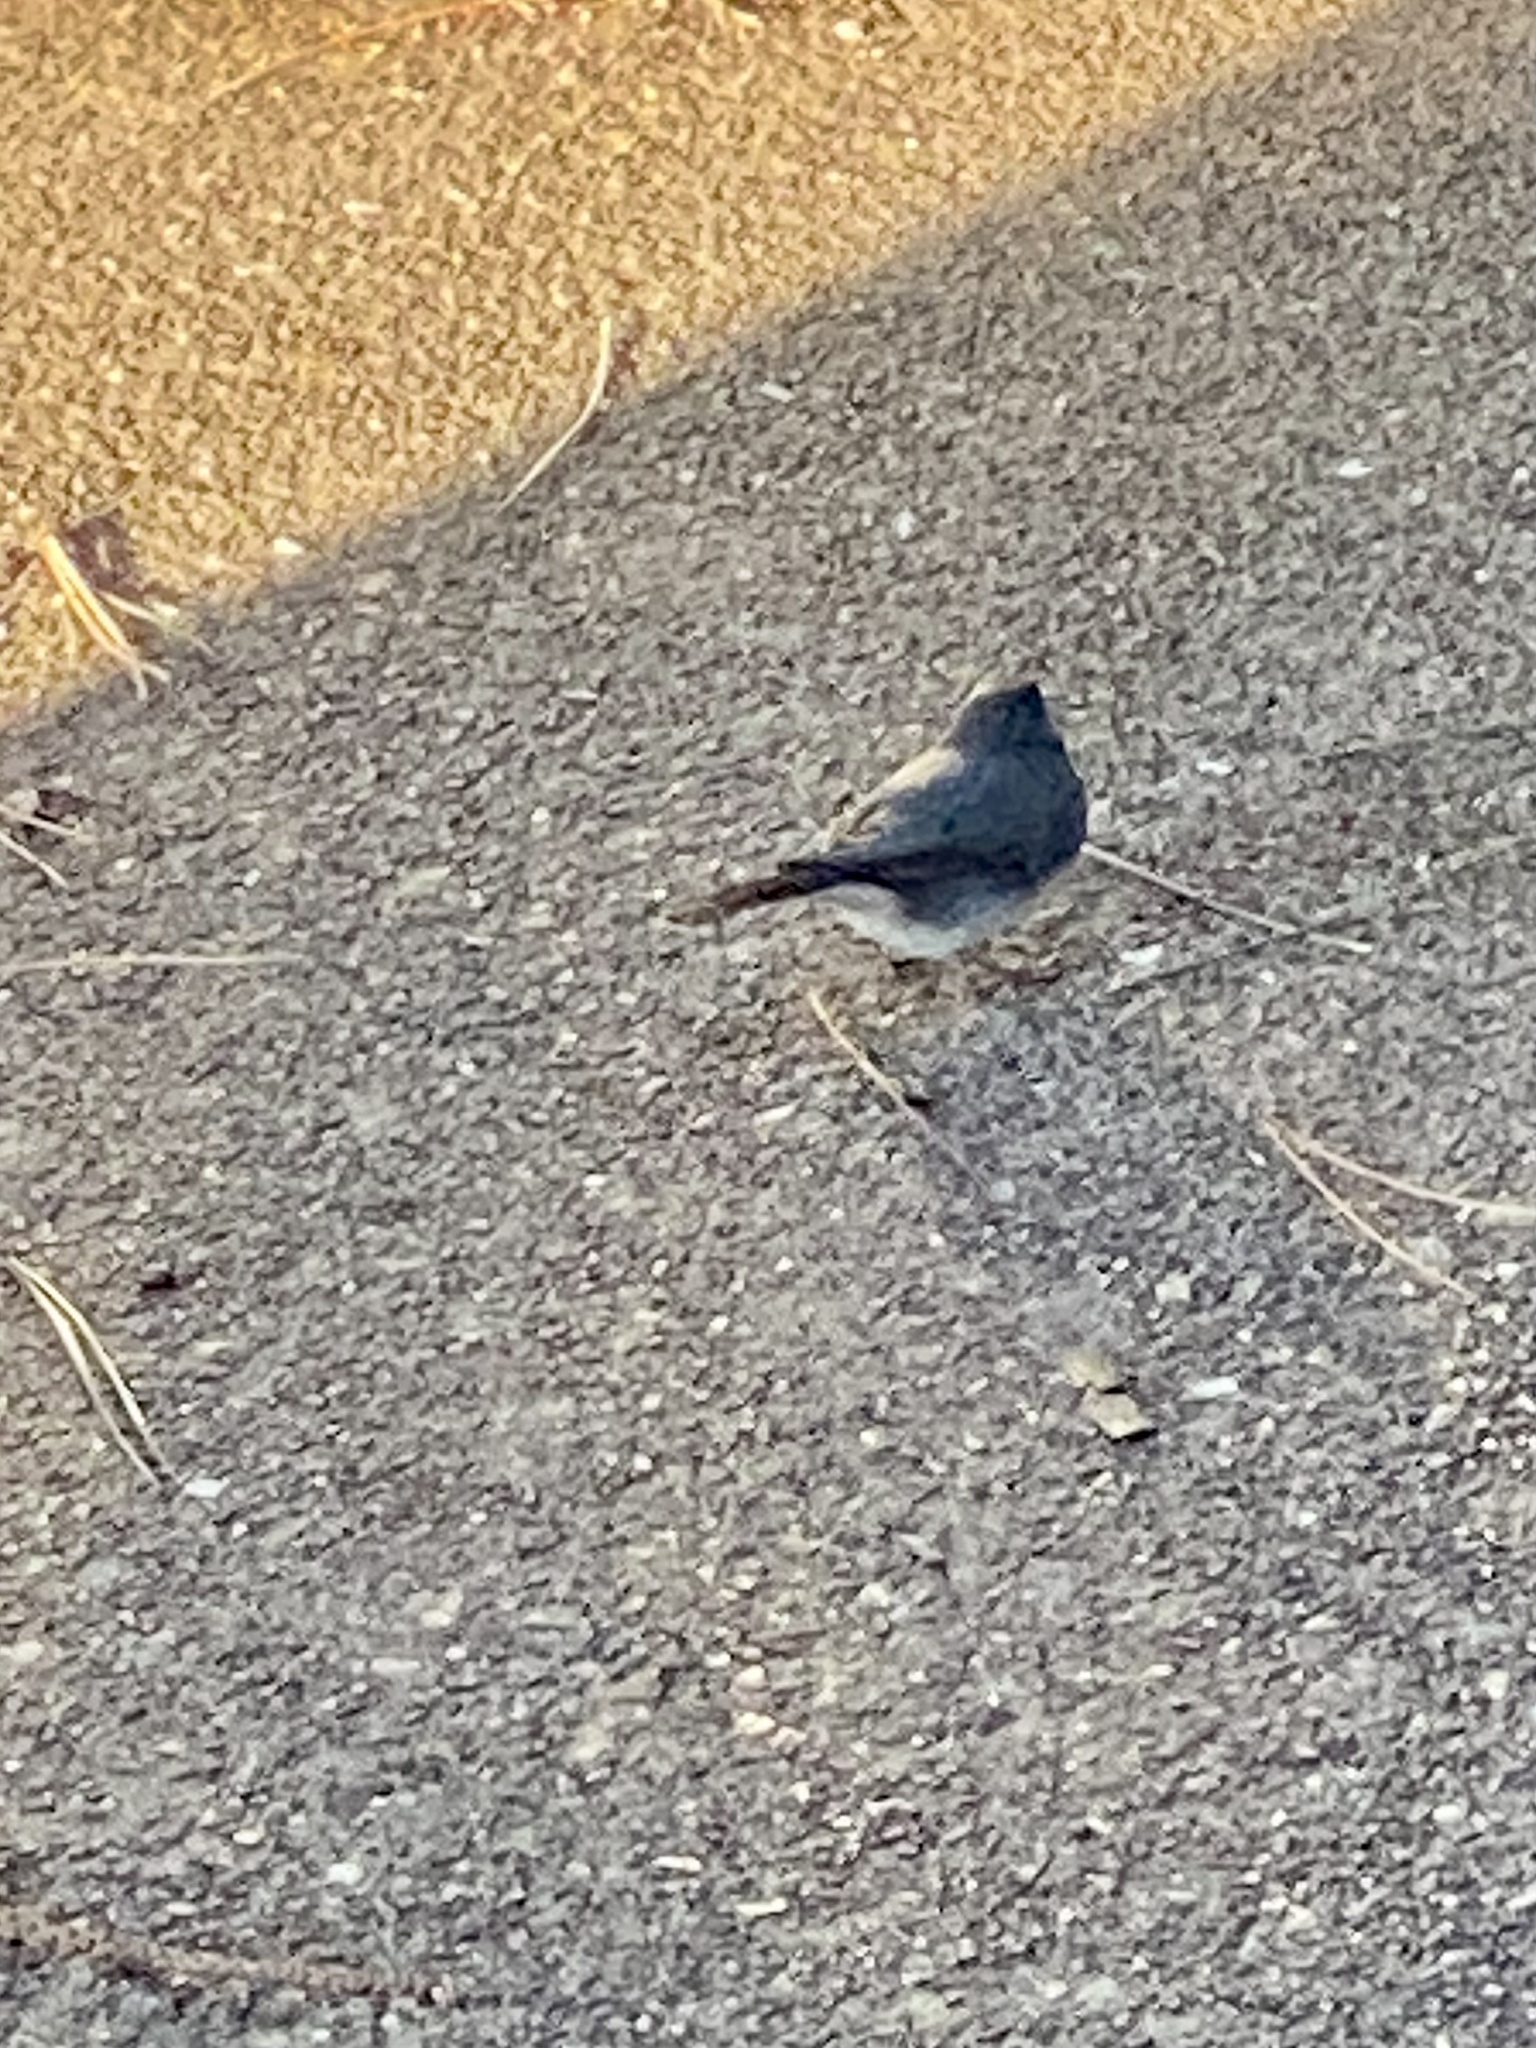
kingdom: Animalia
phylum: Chordata
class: Aves
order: Passeriformes
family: Passerellidae
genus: Junco
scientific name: Junco hyemalis
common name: Dark-eyed junco
